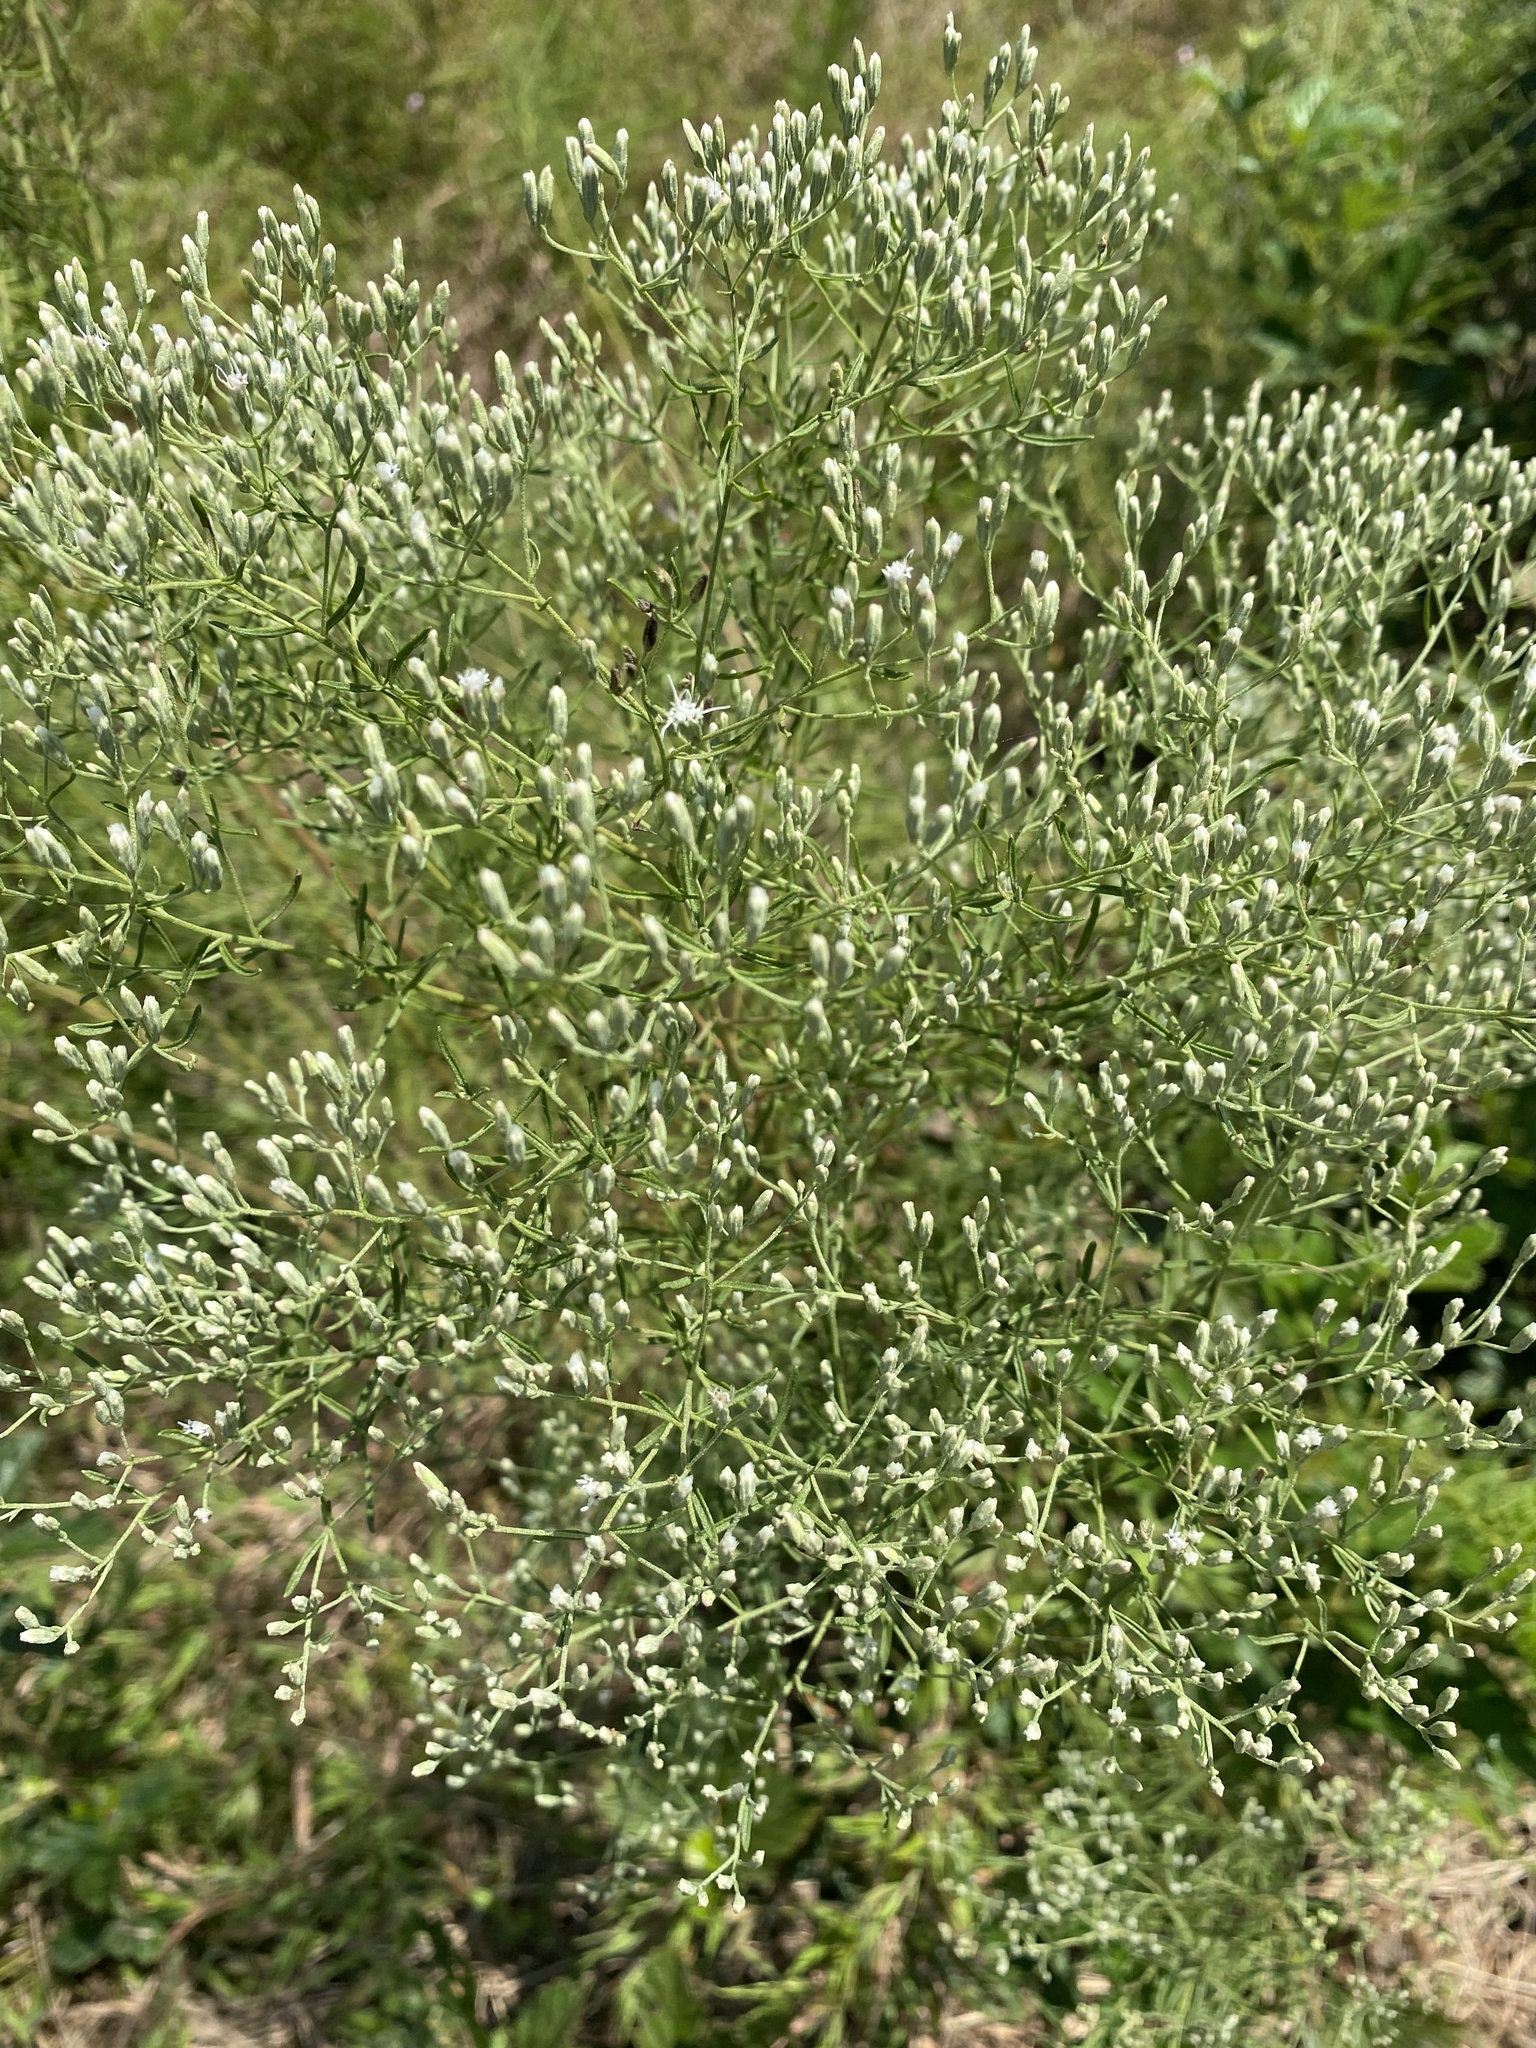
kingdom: Plantae
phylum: Tracheophyta
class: Magnoliopsida
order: Asterales
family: Asteraceae
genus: Eupatorium
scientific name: Eupatorium hyssopifolium
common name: Hyssop-leaf thoroughwort
